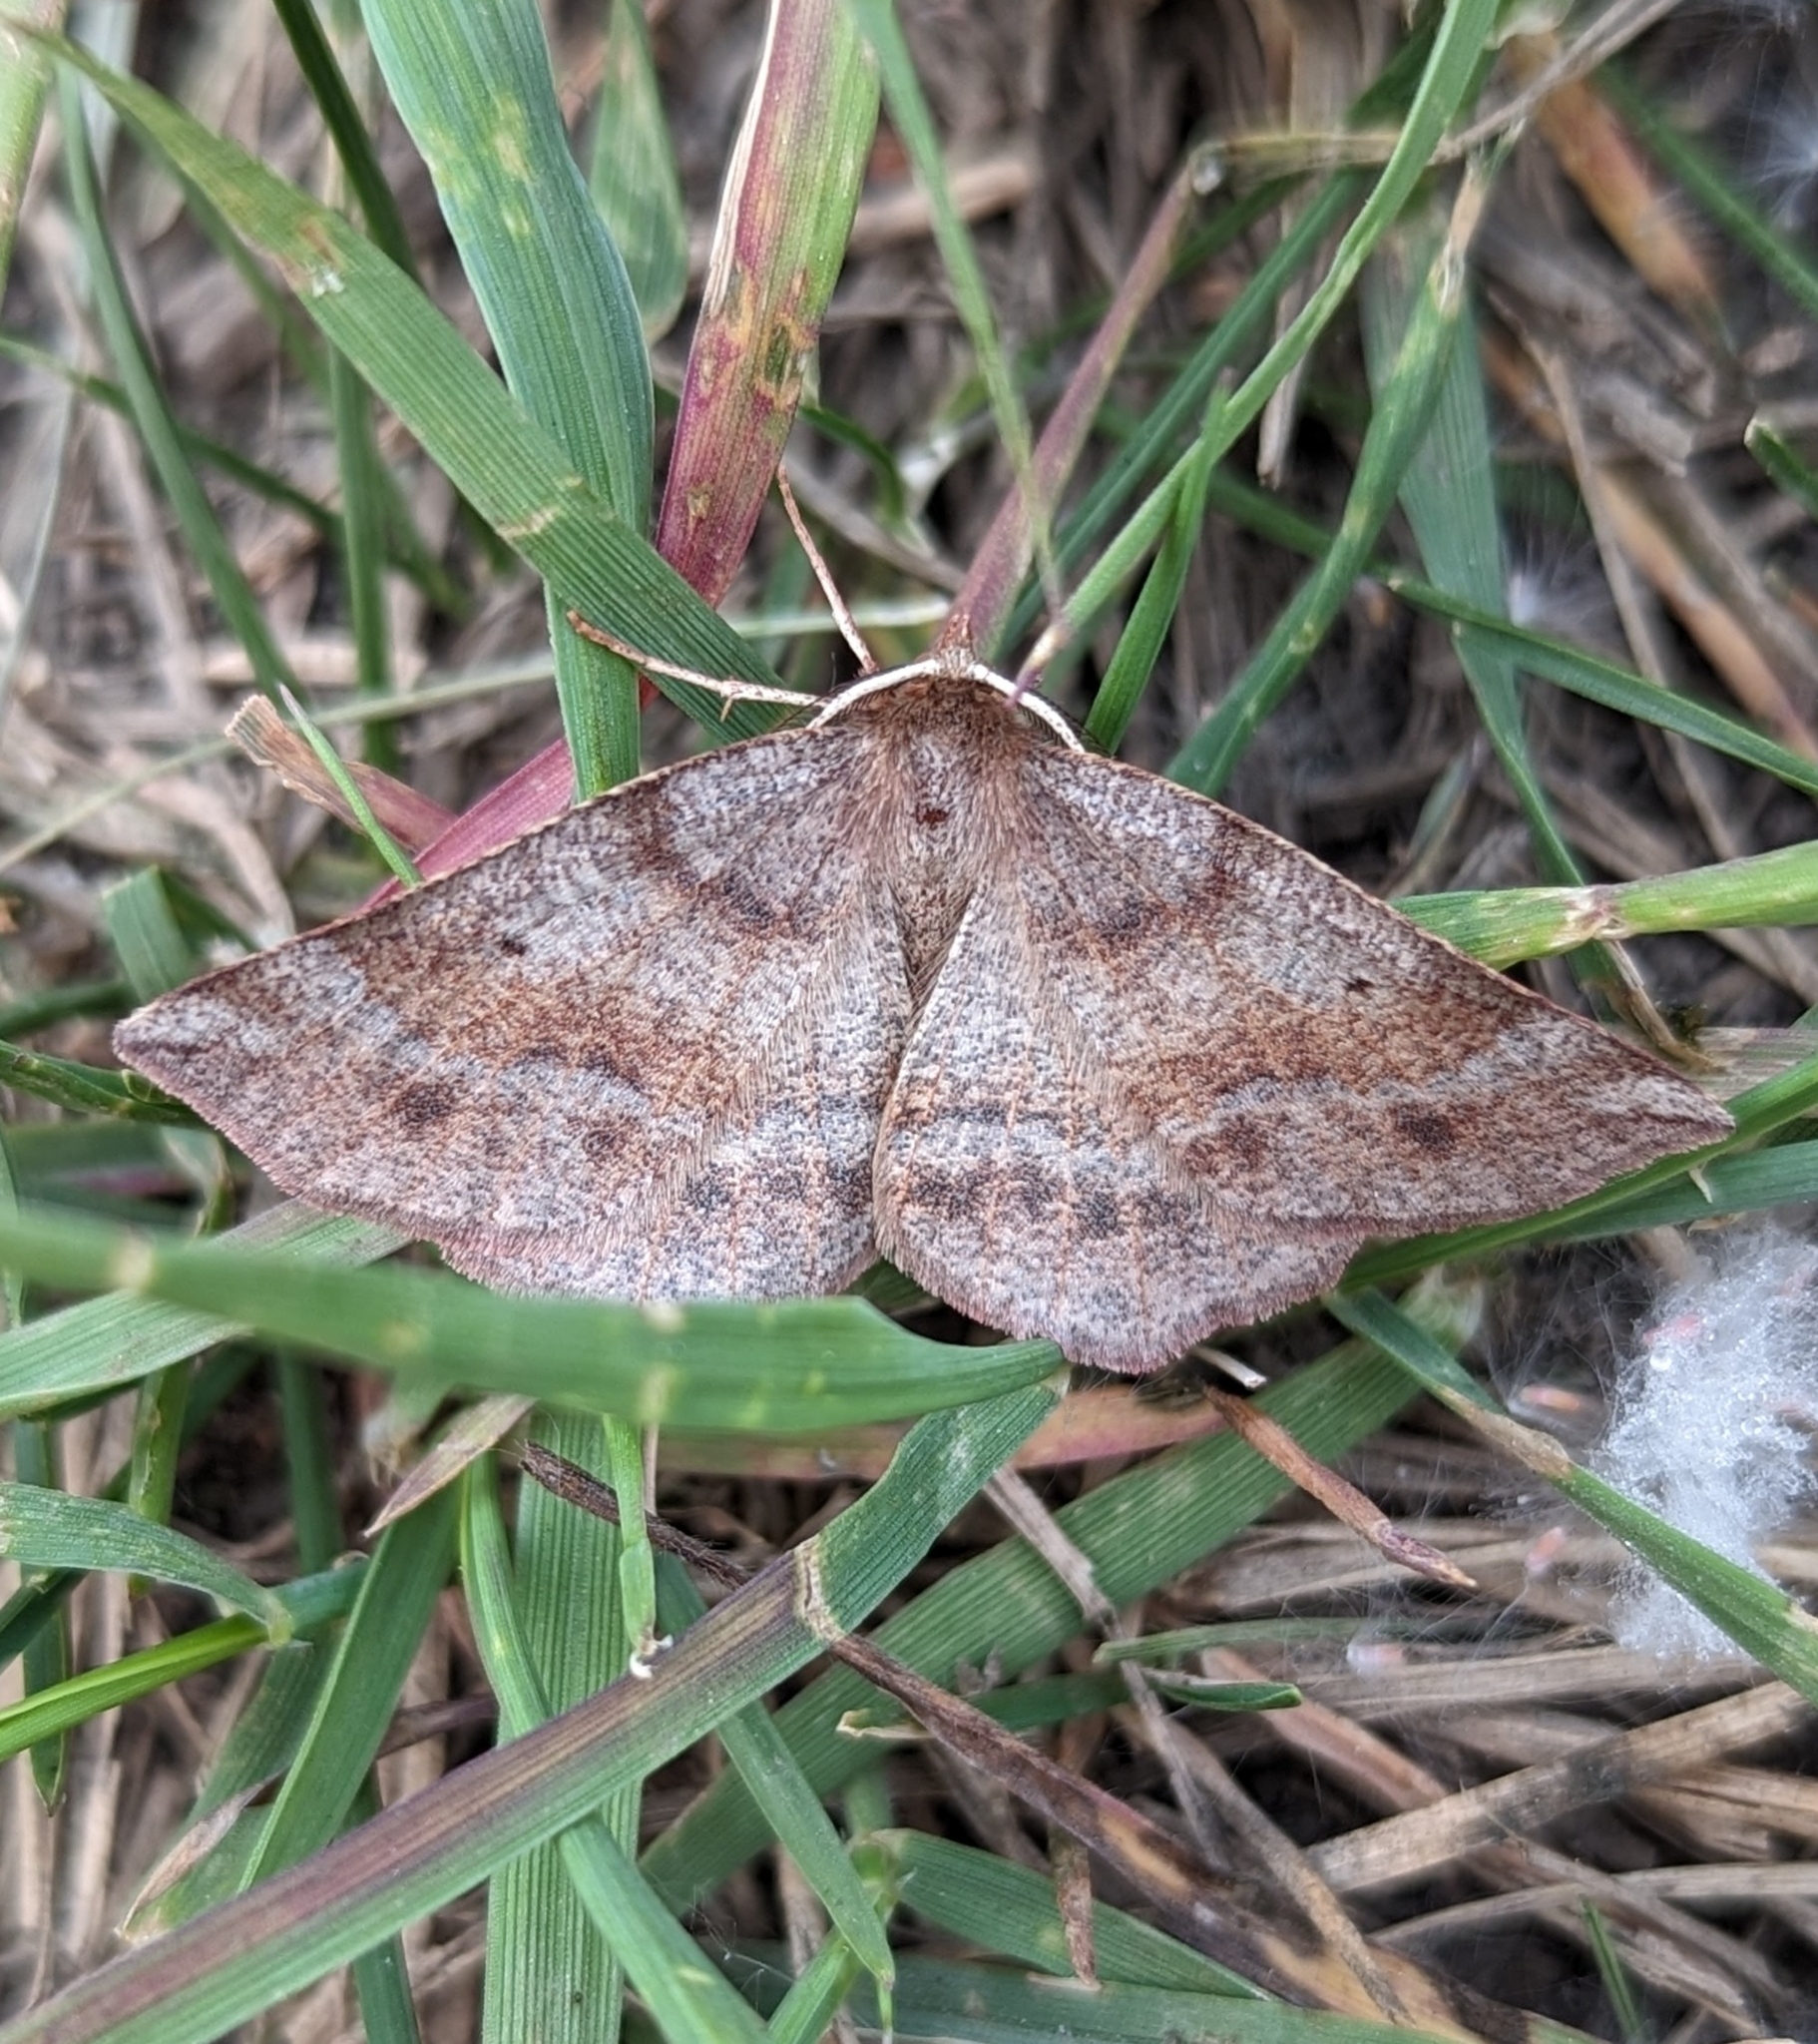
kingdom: Animalia
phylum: Arthropoda
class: Insecta
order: Lepidoptera
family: Geometridae
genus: Metarranthis
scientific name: Metarranthis duaria
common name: Ruddy metarranthis moth
